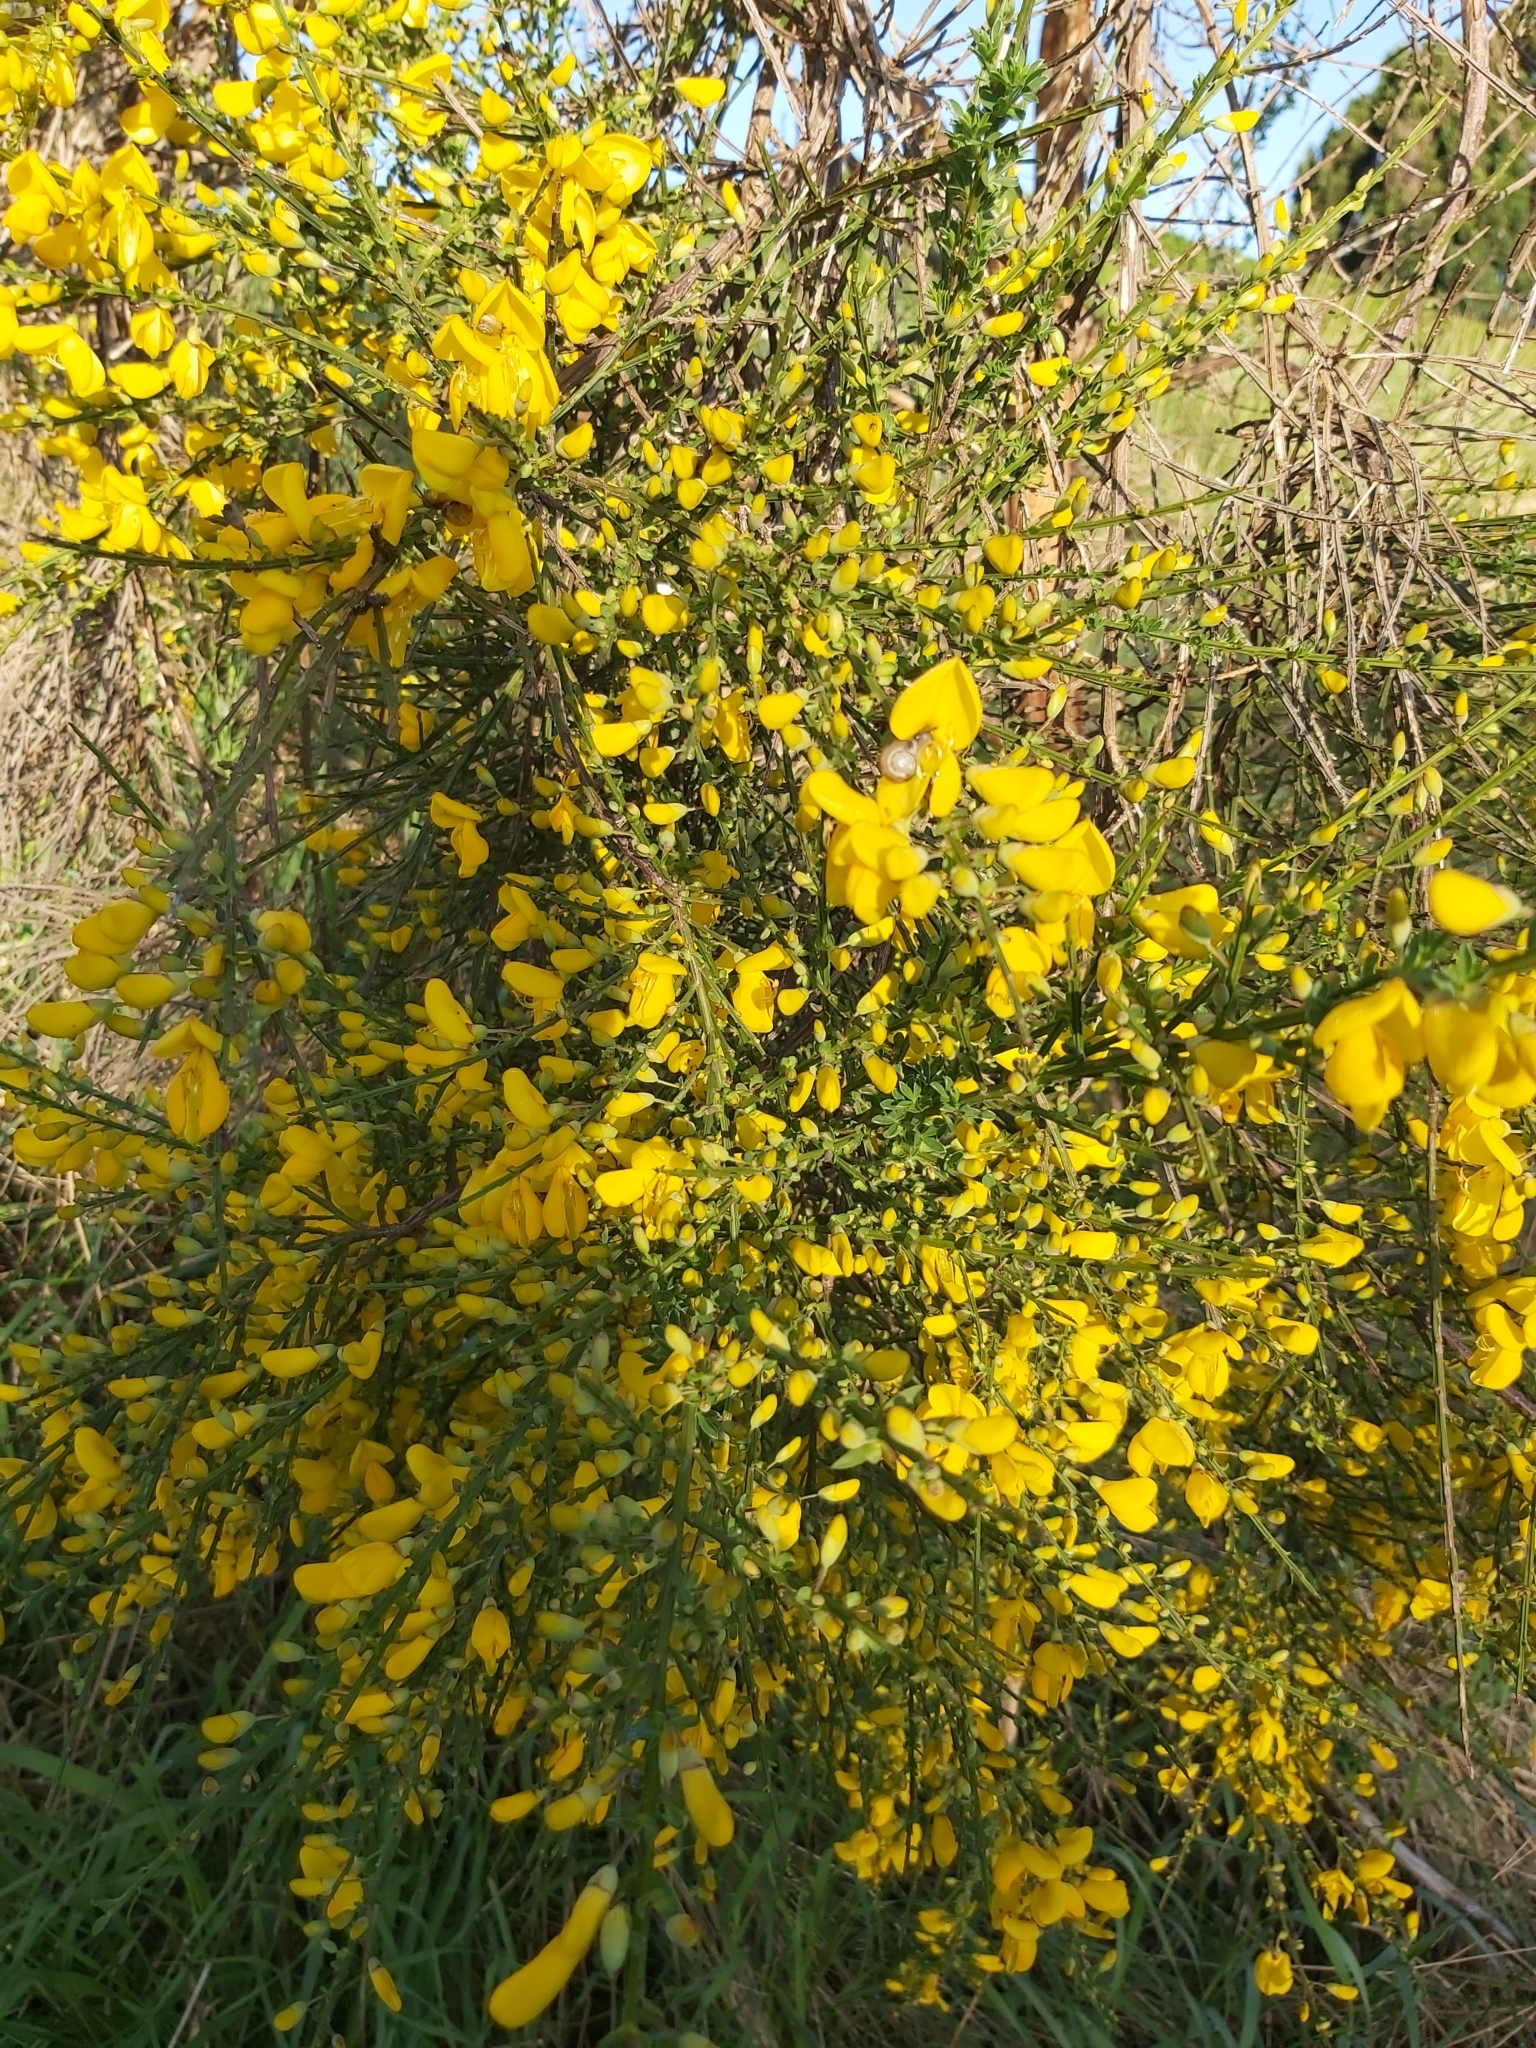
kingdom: Plantae
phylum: Tracheophyta
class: Magnoliopsida
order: Fabales
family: Fabaceae
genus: Cytisus
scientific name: Cytisus scoparius
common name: Scotch broom
